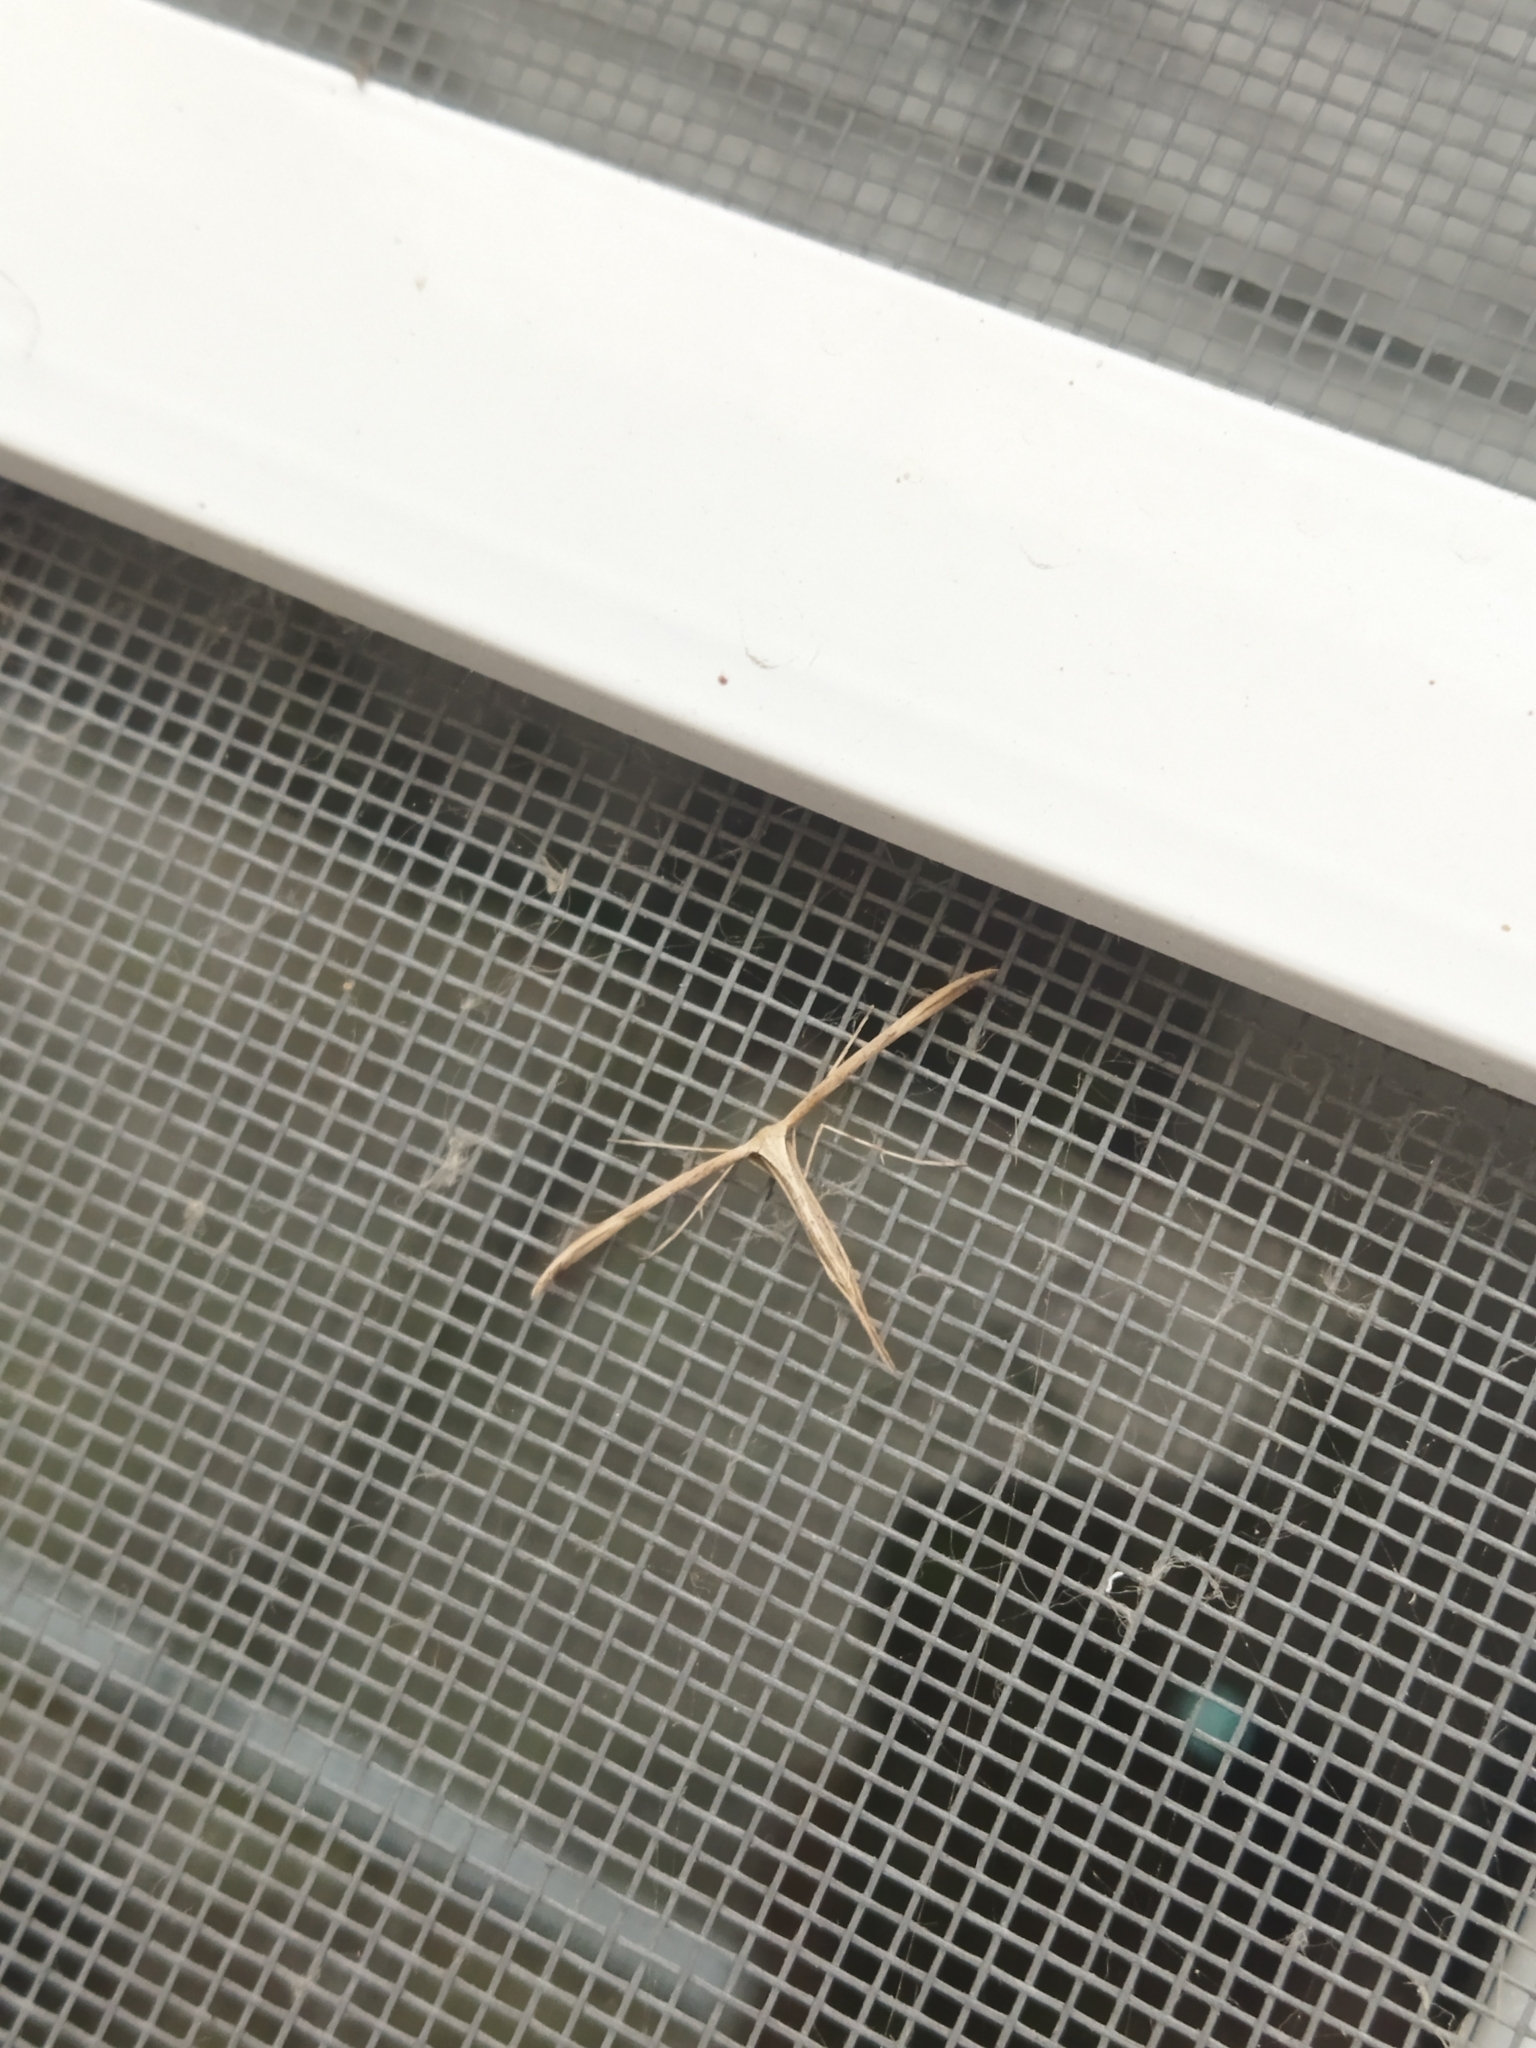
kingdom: Animalia
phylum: Arthropoda
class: Insecta
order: Lepidoptera
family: Pterophoridae
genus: Emmelina
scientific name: Emmelina monodactyla
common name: Common plume
